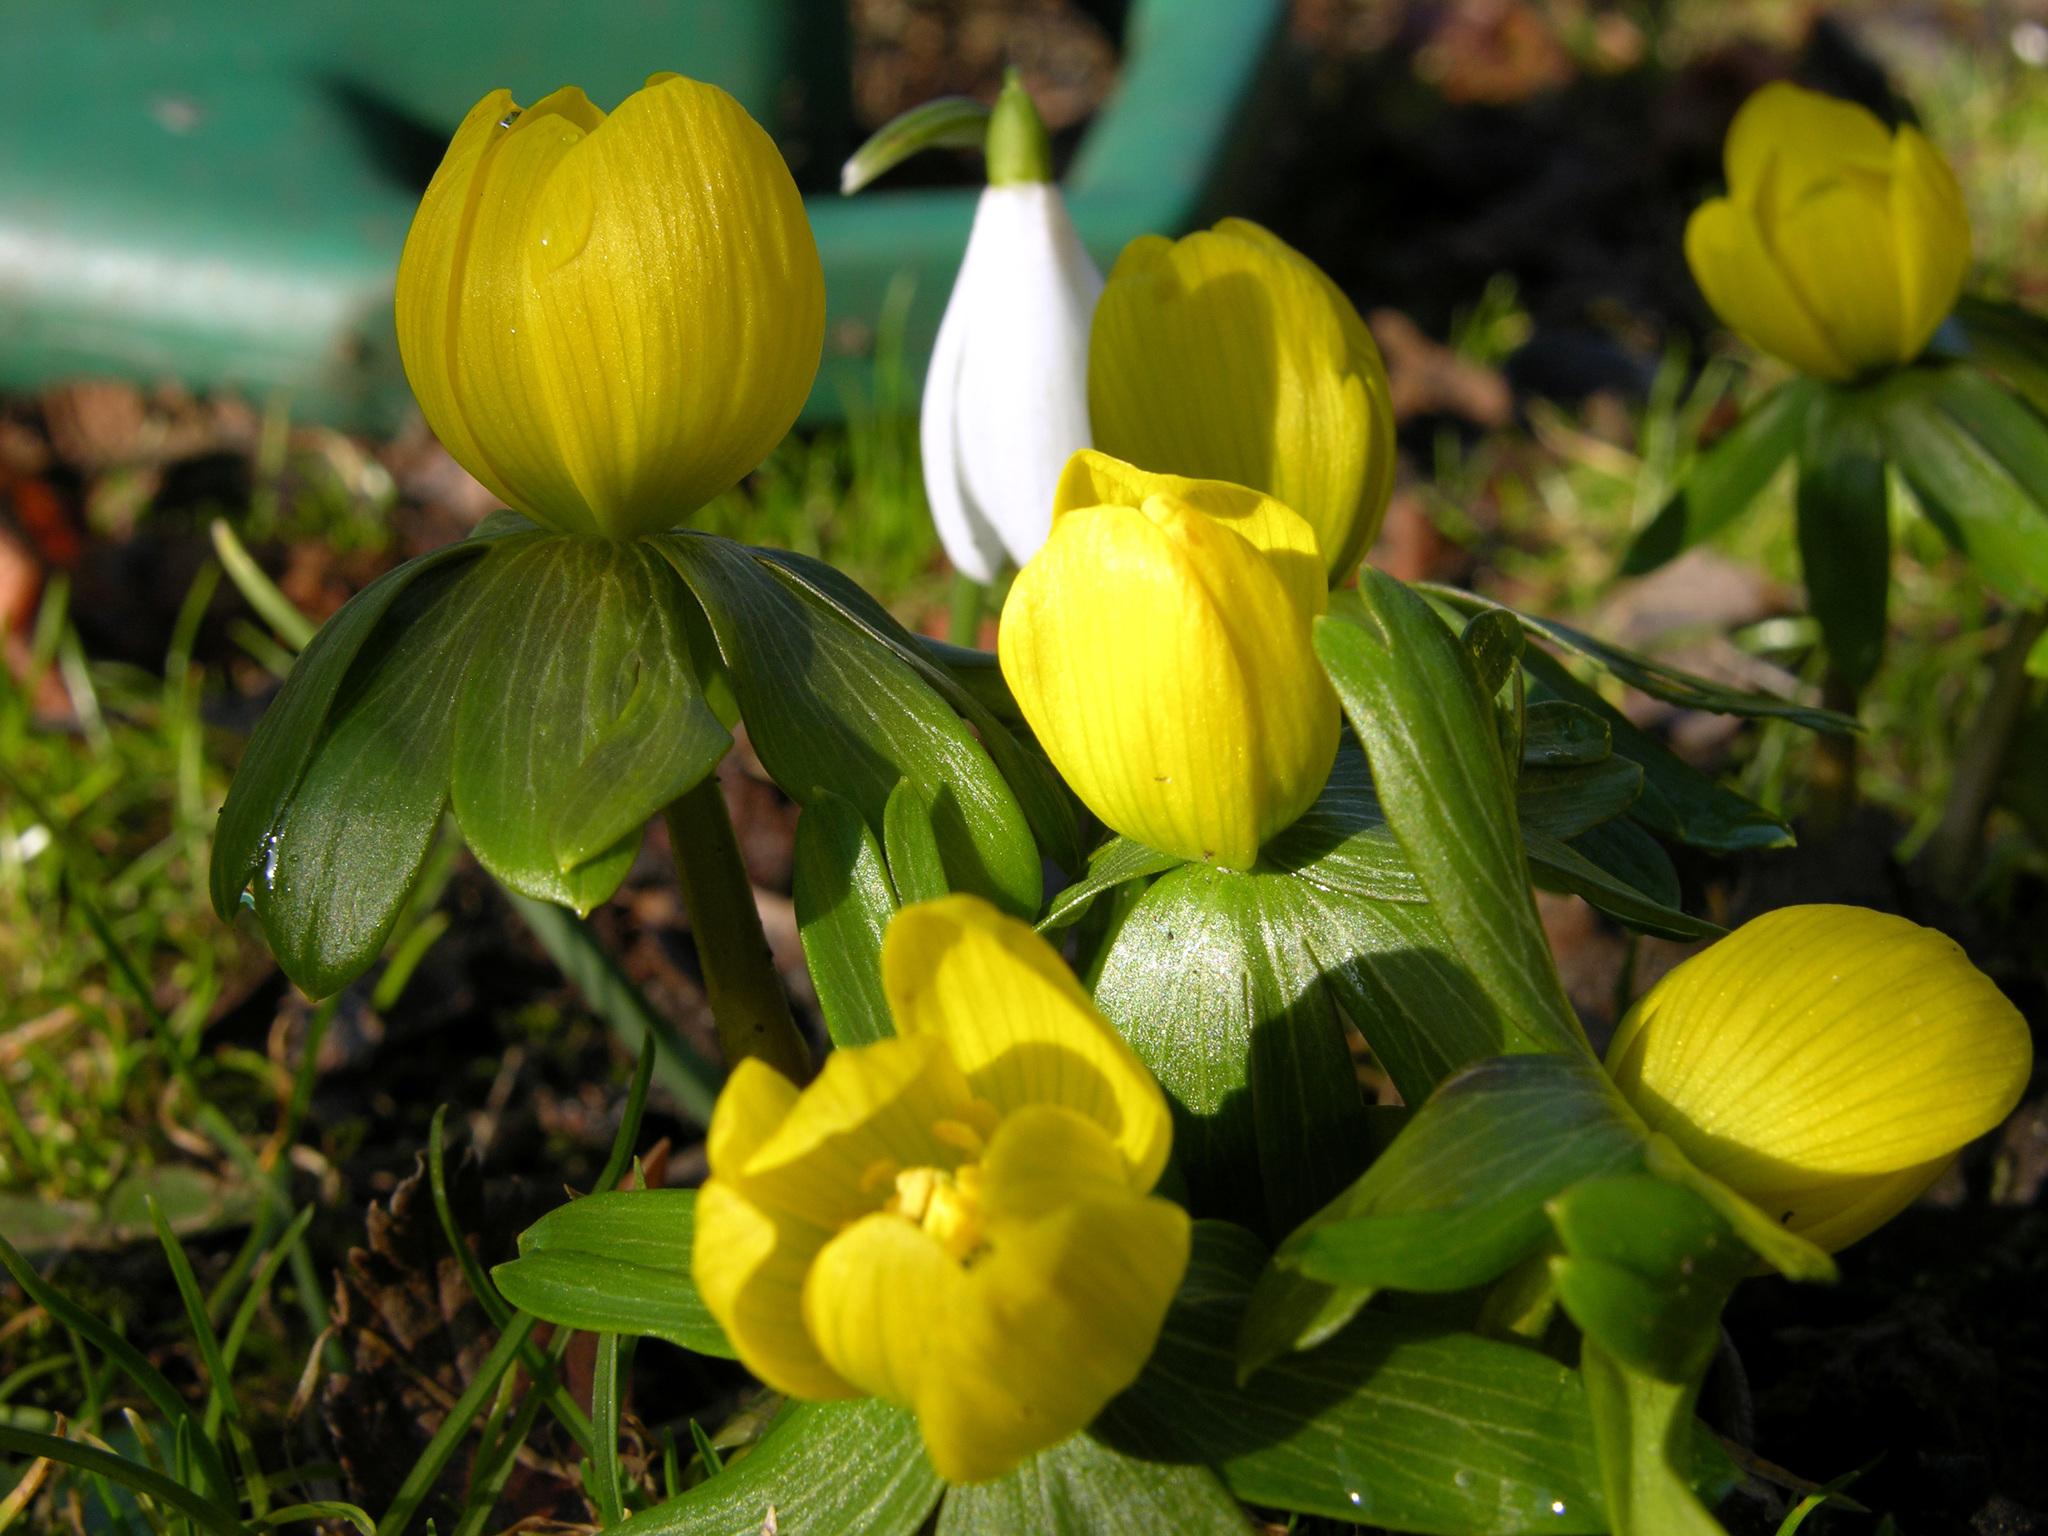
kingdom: Plantae
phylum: Tracheophyta
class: Magnoliopsida
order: Ranunculales
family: Ranunculaceae
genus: Eranthis
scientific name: Eranthis hyemalis
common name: Winter aconite
